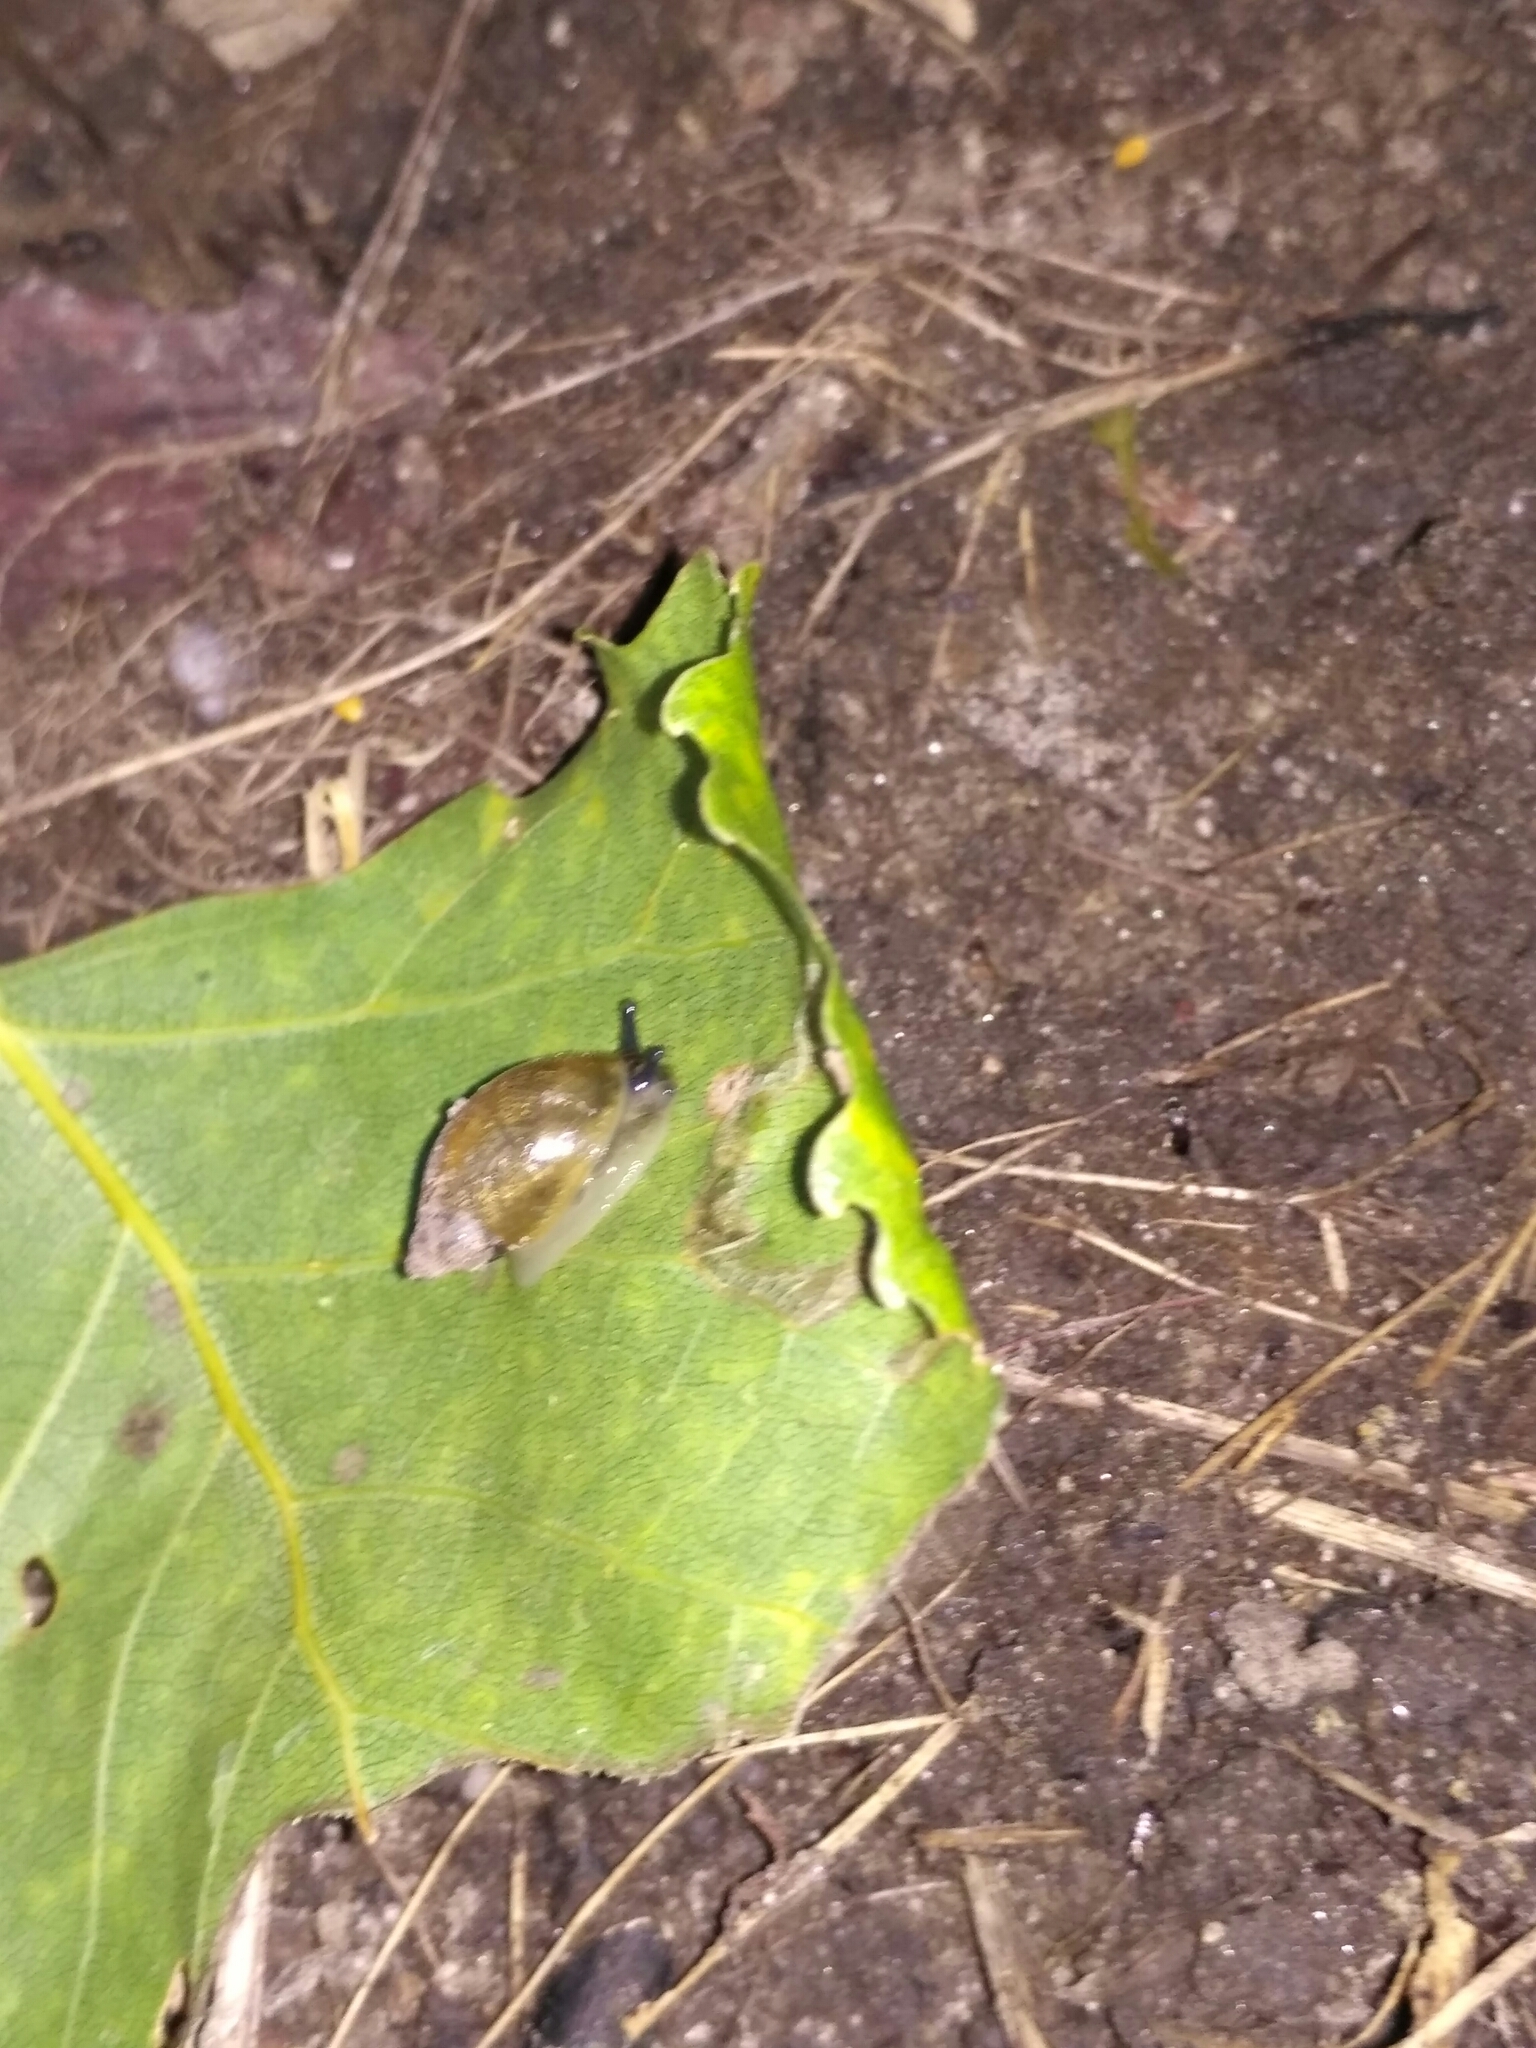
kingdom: Animalia
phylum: Mollusca
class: Gastropoda
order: Stylommatophora
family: Succineidae
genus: Succinea
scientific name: Succinea putris
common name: European ambersnail
